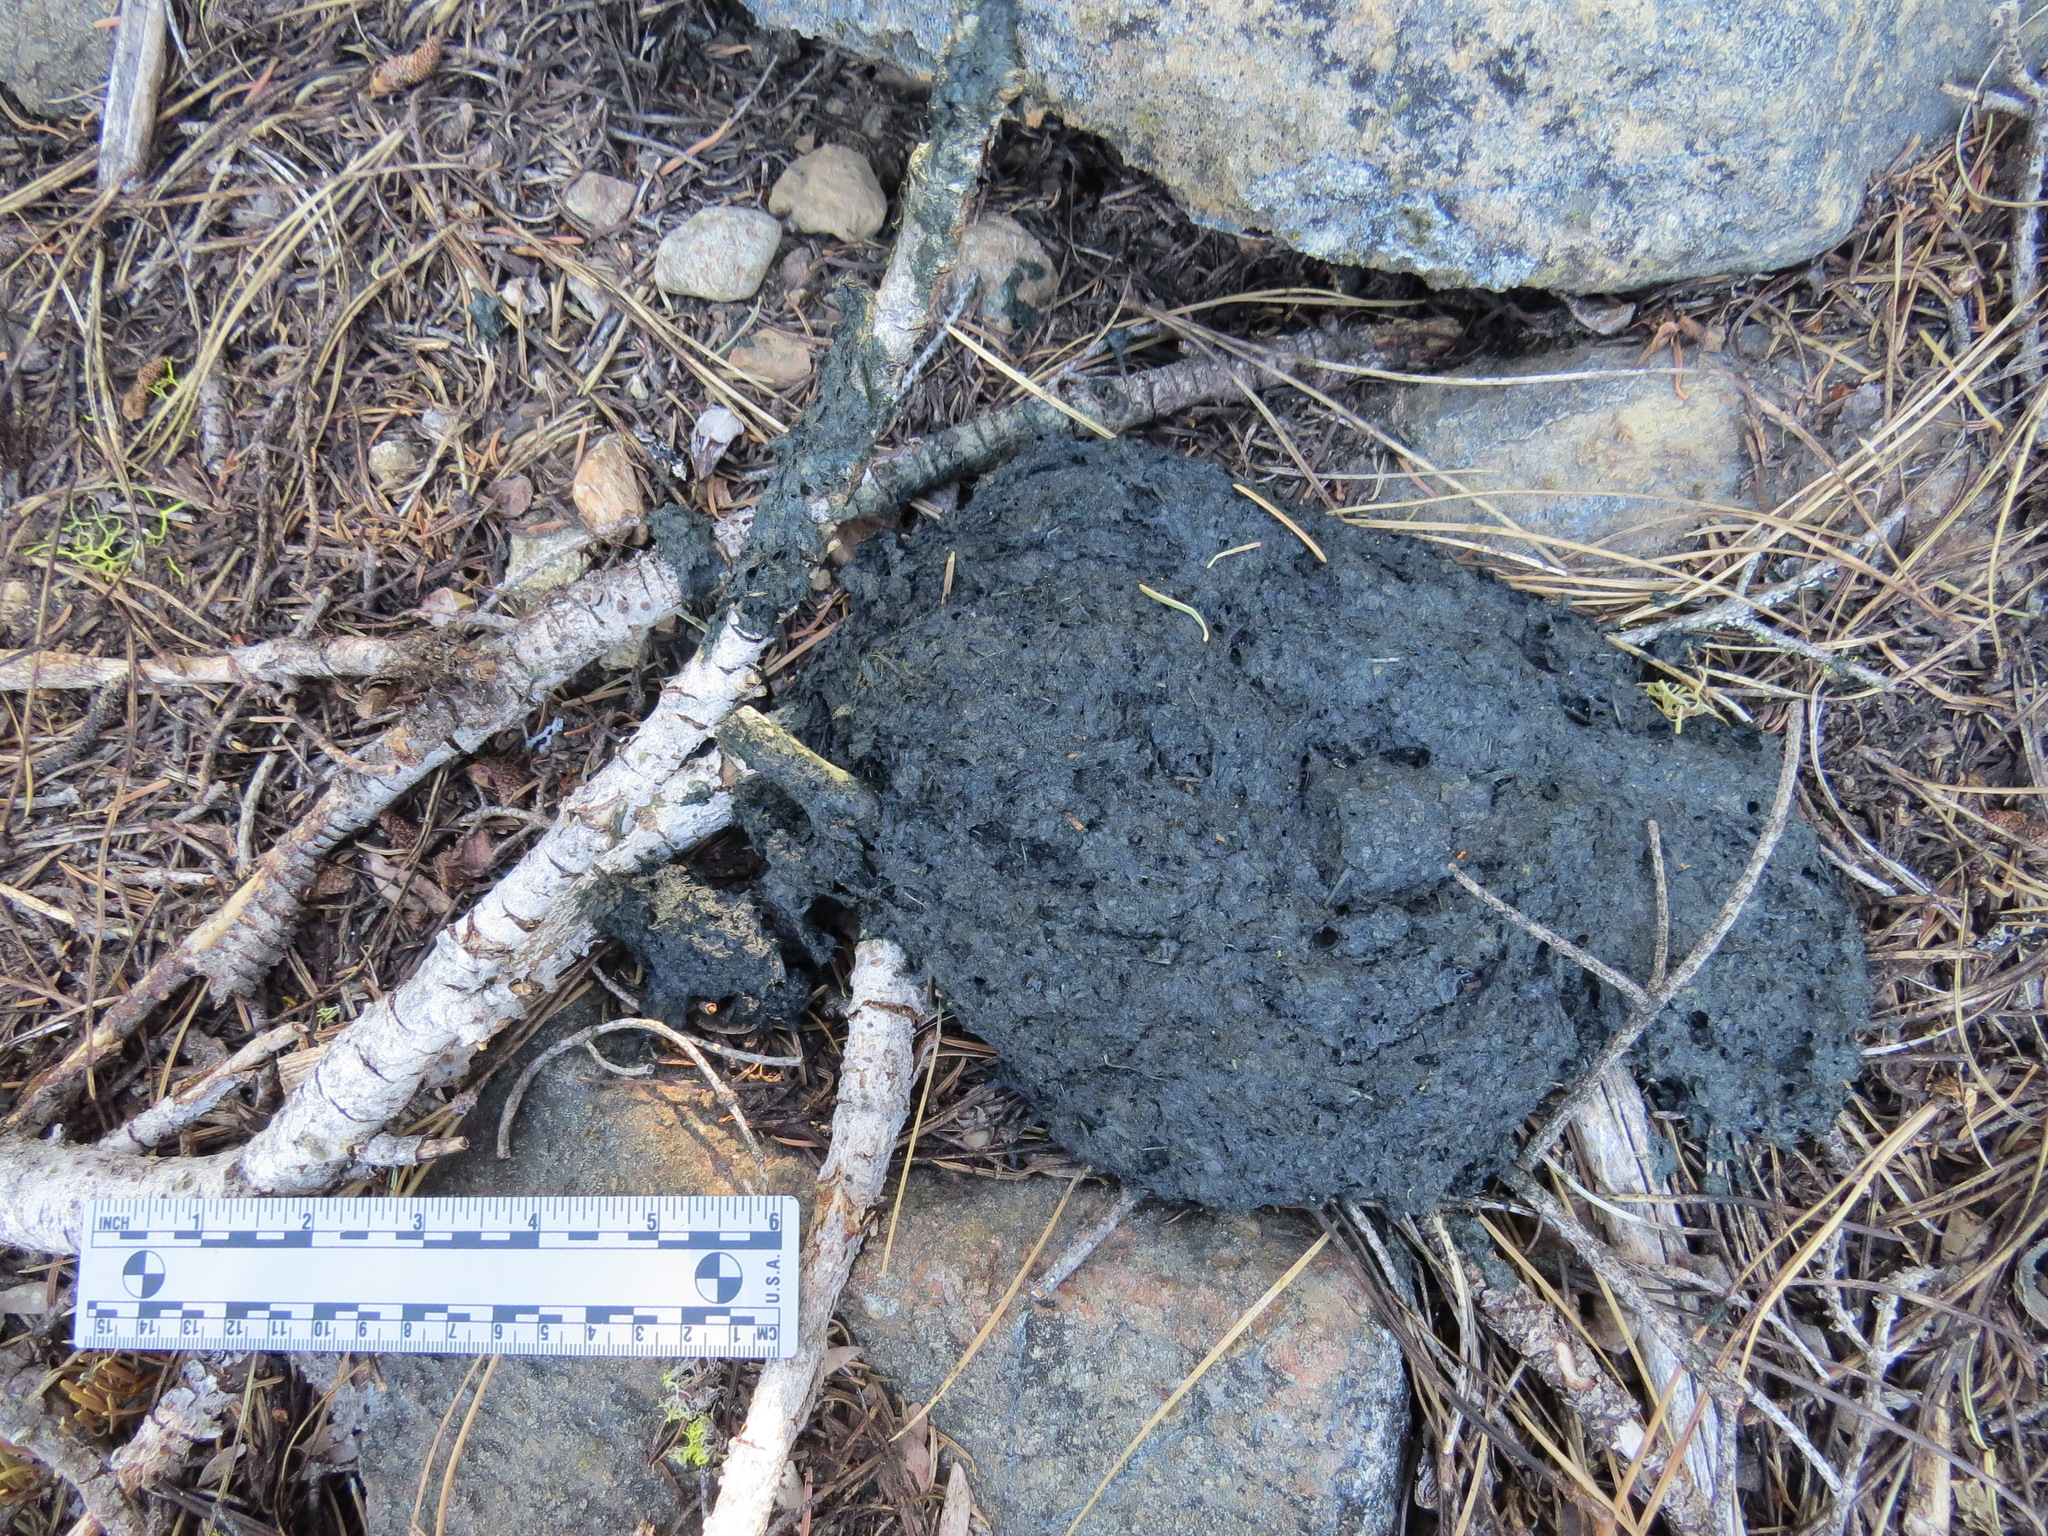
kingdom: Animalia
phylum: Chordata
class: Mammalia
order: Carnivora
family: Ursidae
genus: Ursus
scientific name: Ursus americanus
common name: American black bear
